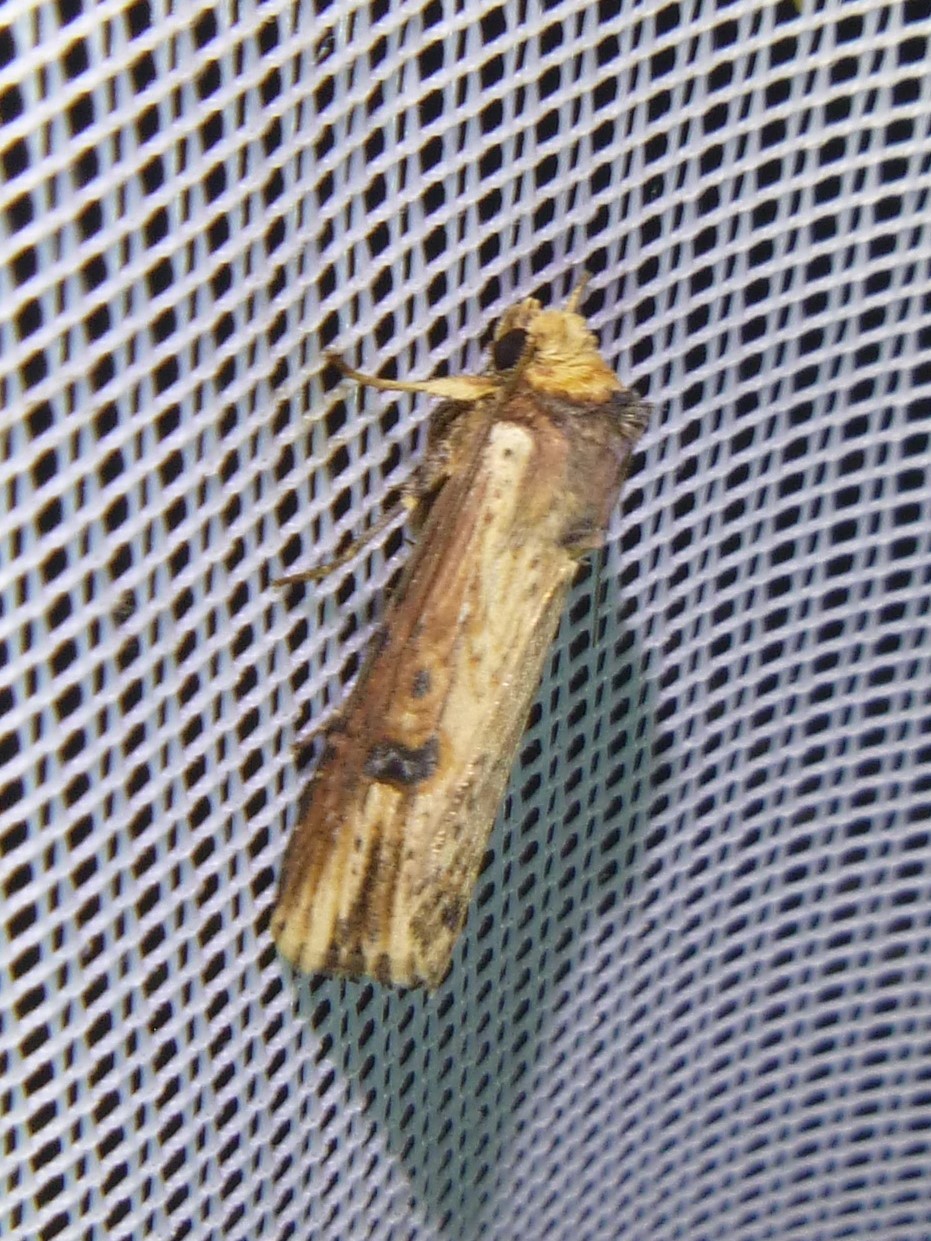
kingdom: Animalia
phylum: Arthropoda
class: Insecta
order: Lepidoptera
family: Noctuidae
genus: Axylia
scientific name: Axylia putris
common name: Flame
